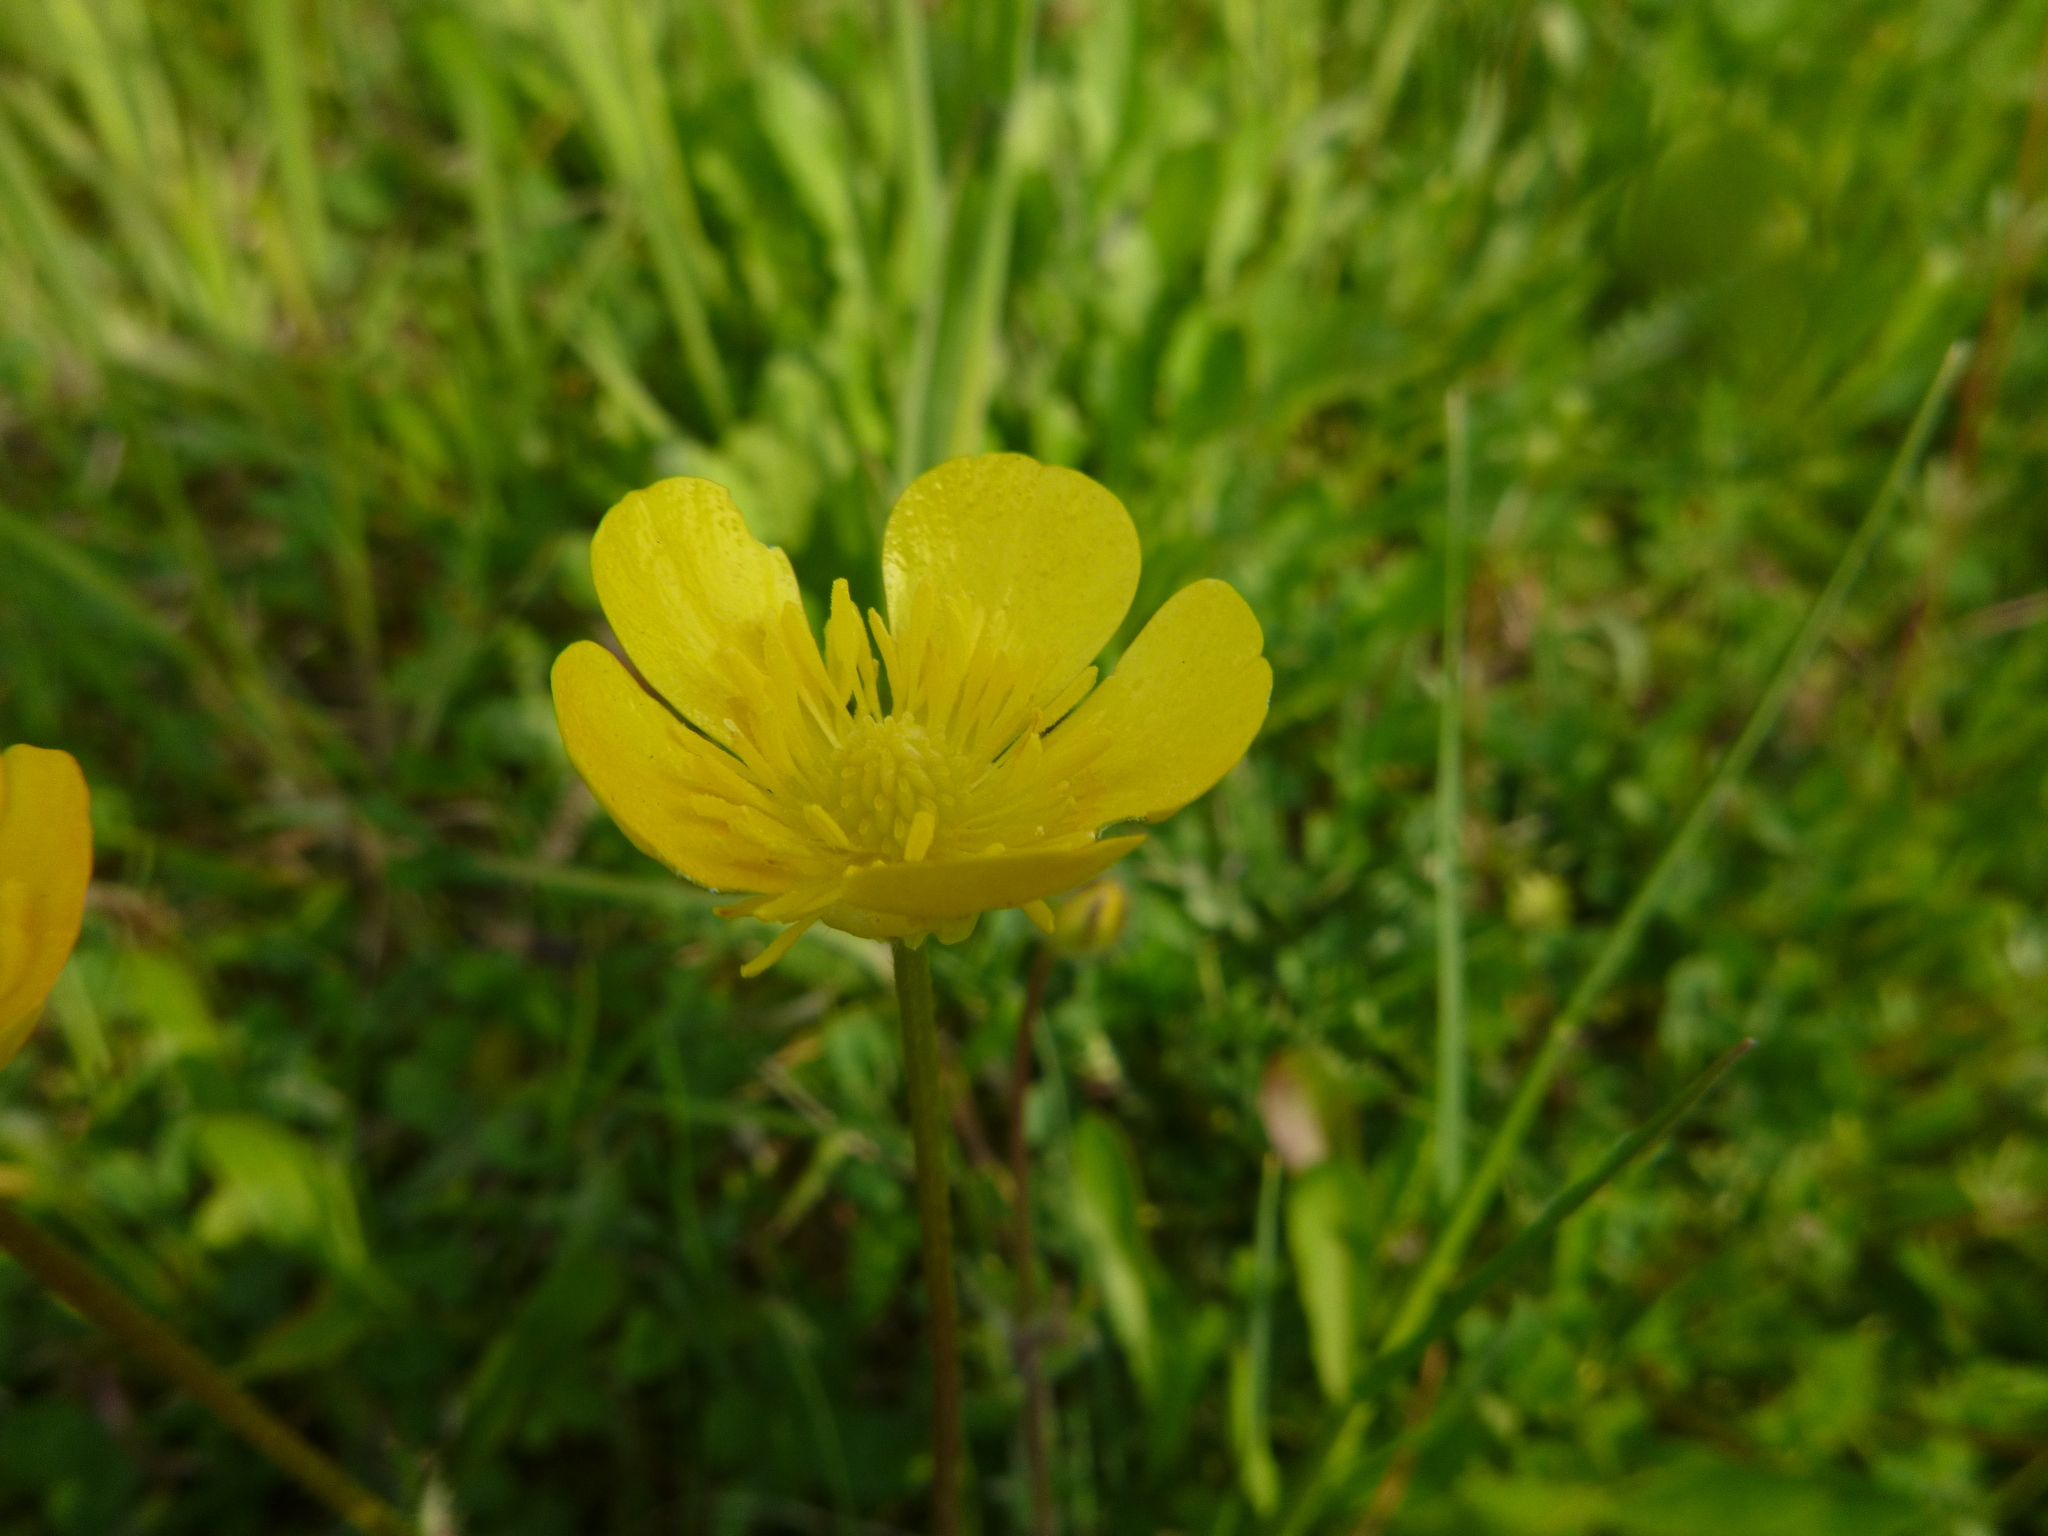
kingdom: Plantae
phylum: Tracheophyta
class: Magnoliopsida
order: Ranunculales
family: Ranunculaceae
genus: Ranunculus
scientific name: Ranunculus bulbosus
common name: Bulbous buttercup
